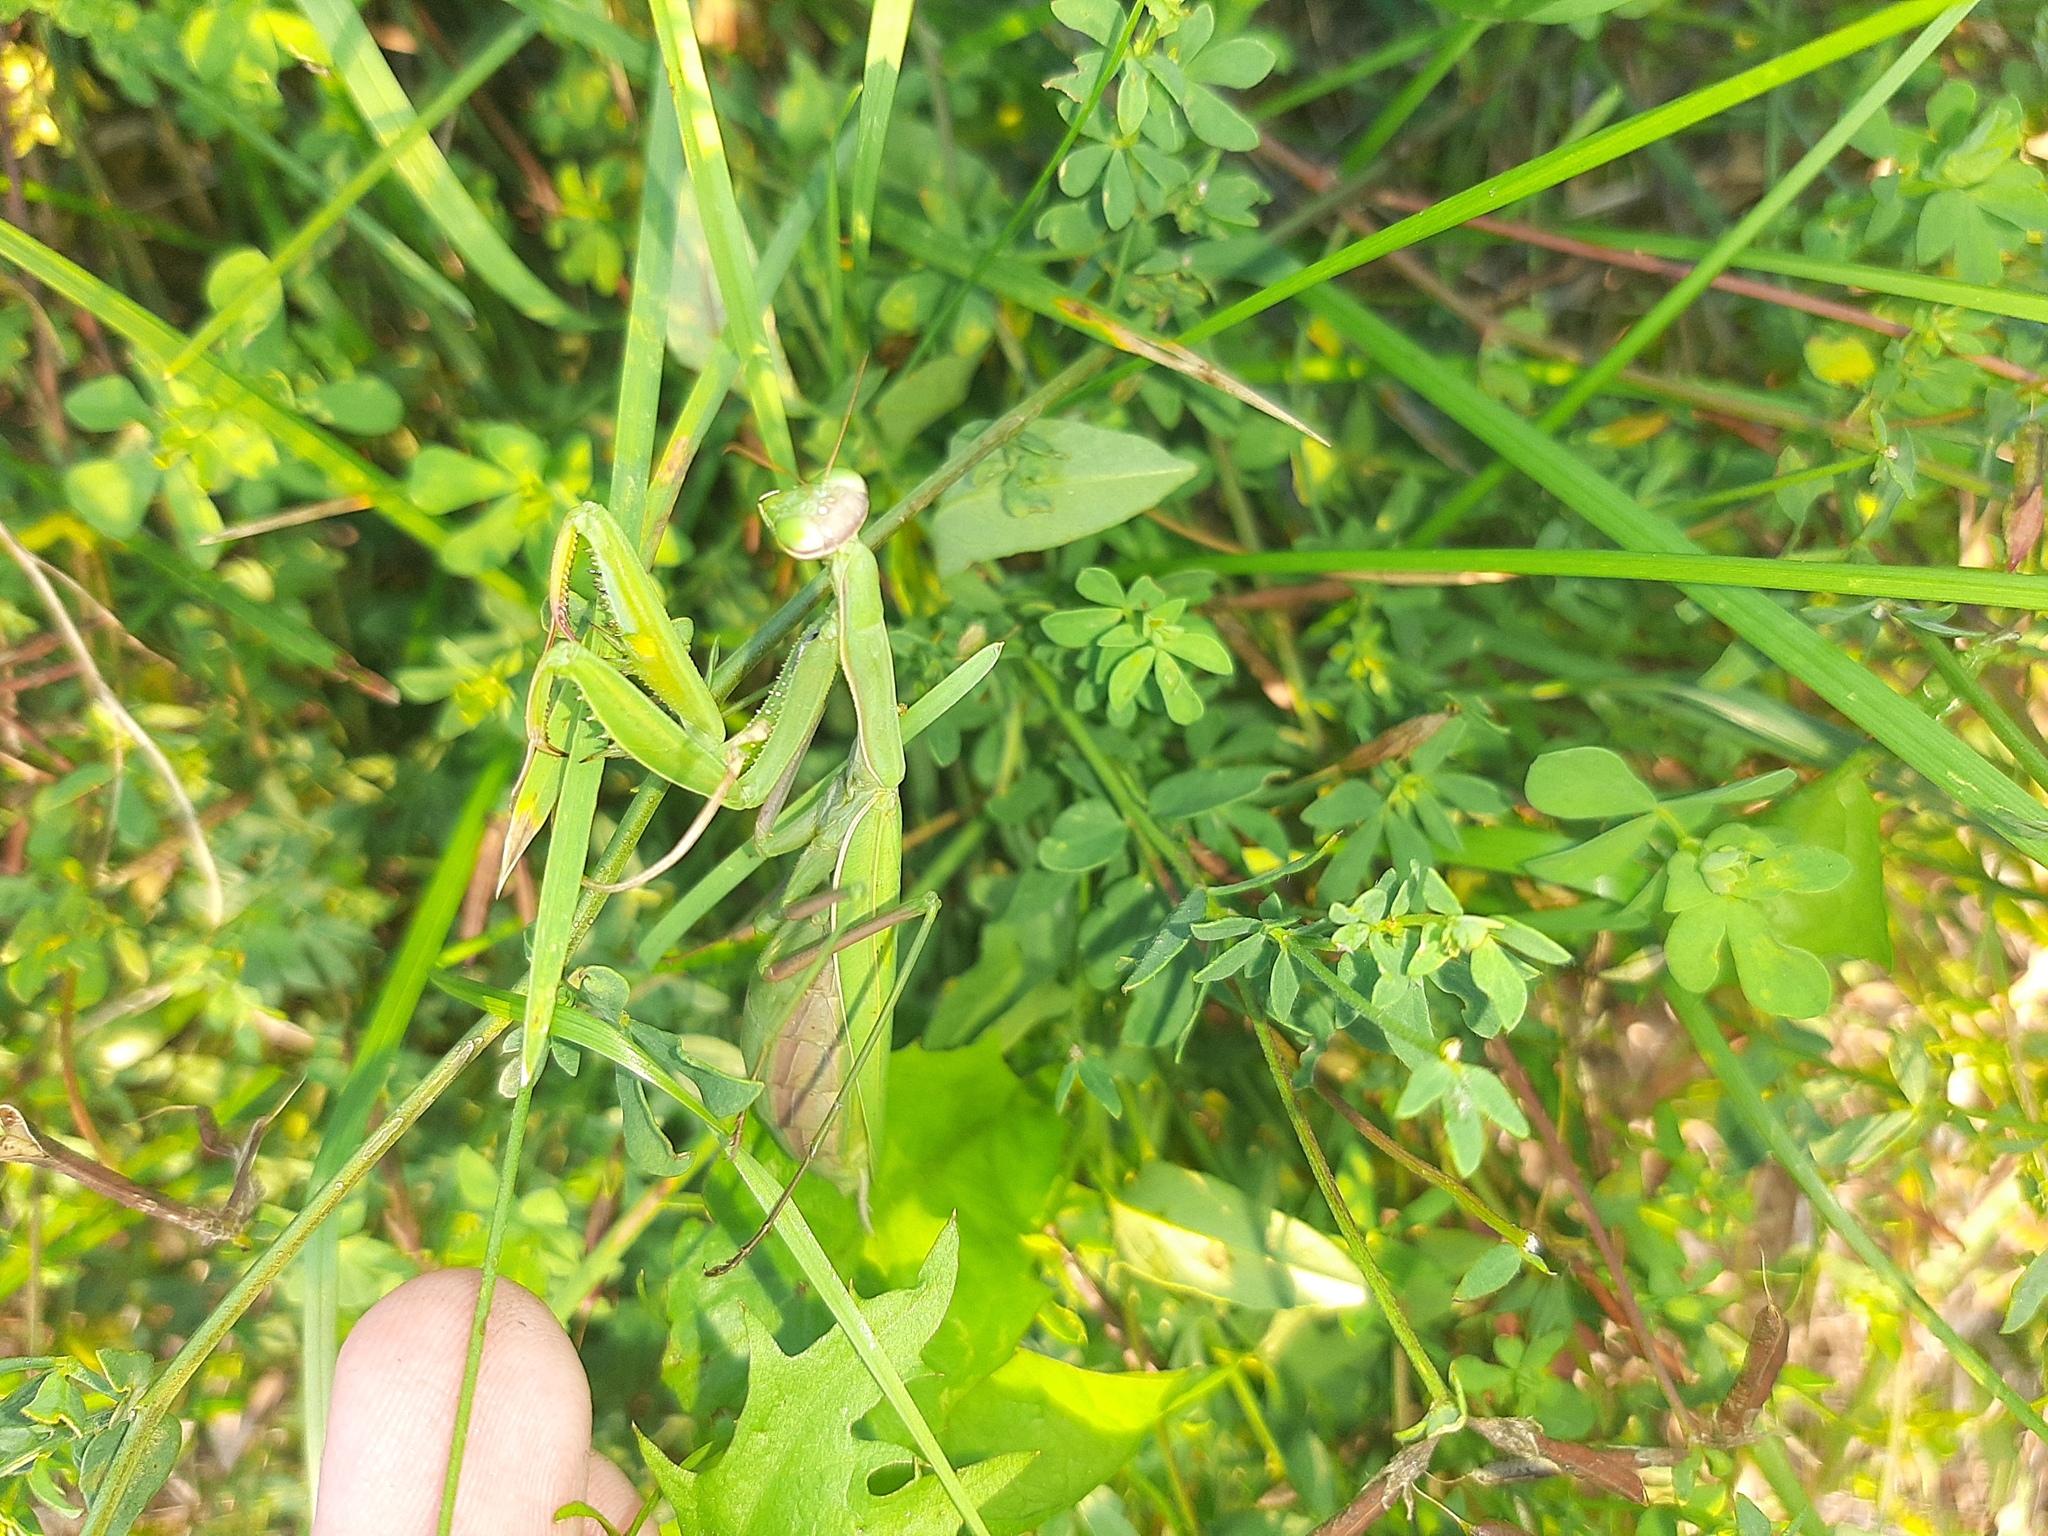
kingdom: Animalia
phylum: Arthropoda
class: Insecta
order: Mantodea
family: Mantidae
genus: Mantis
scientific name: Mantis religiosa
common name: Praying mantis
